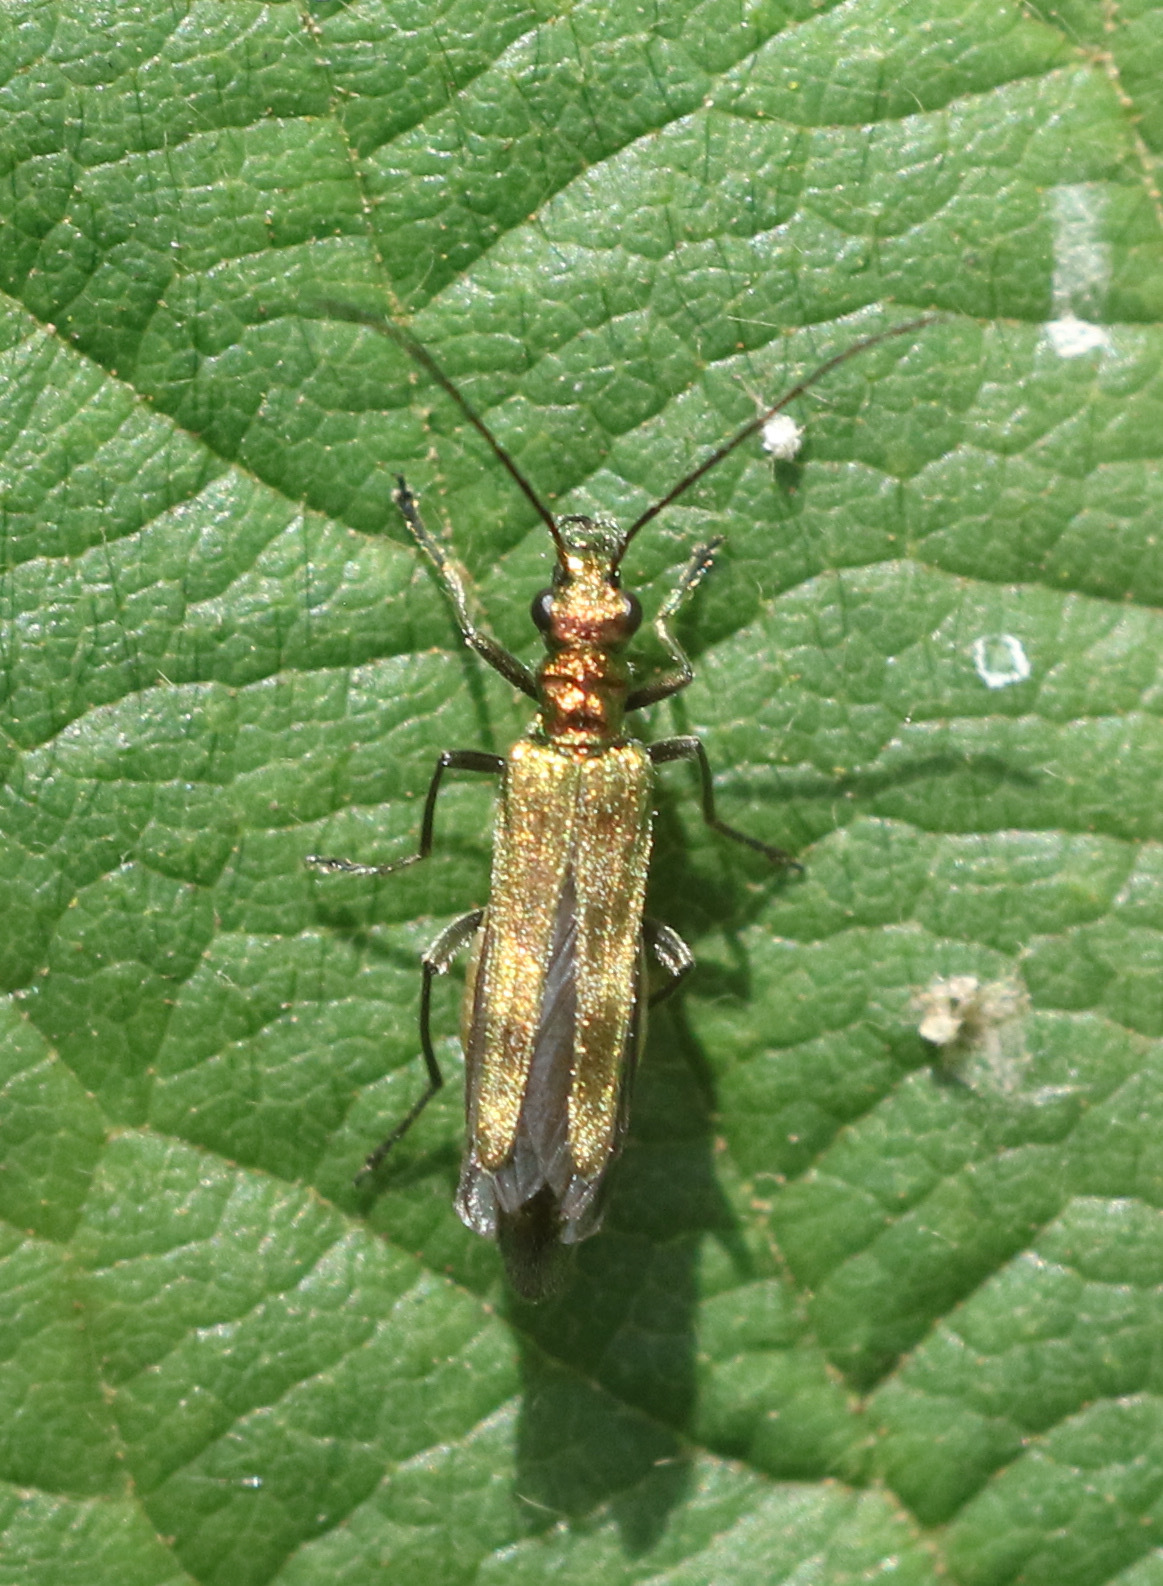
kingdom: Animalia
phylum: Arthropoda
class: Insecta
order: Coleoptera
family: Oedemeridae
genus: Oedemera
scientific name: Oedemera nobilis
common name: Swollen-thighed beetle
